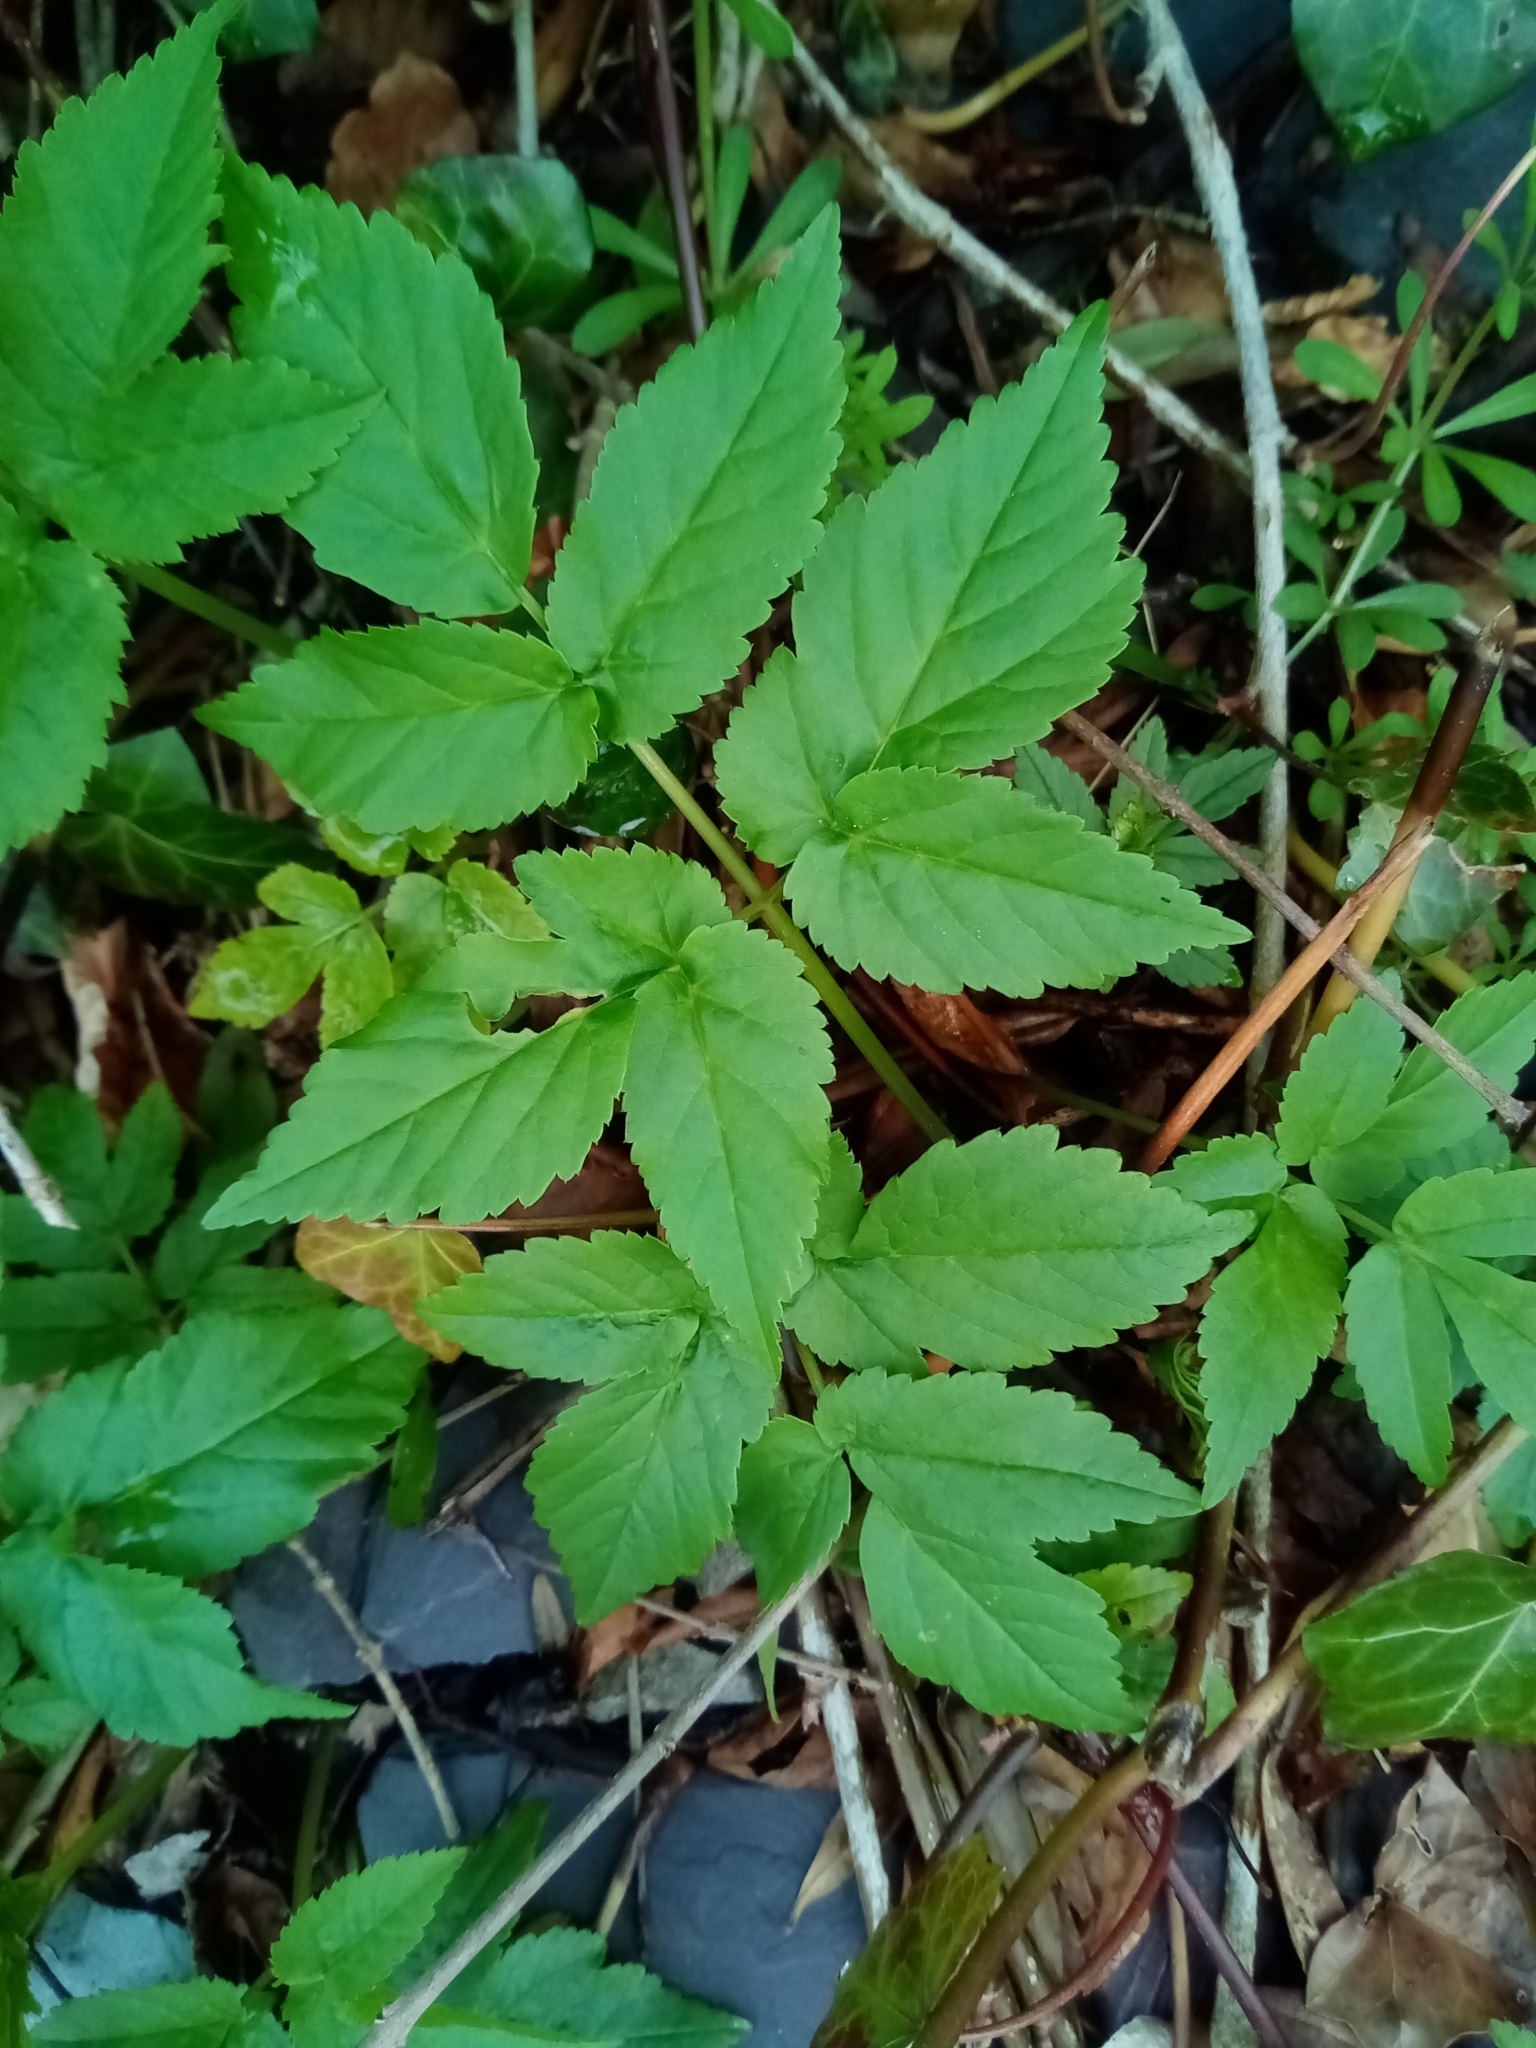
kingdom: Plantae
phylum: Tracheophyta
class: Magnoliopsida
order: Apiales
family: Apiaceae
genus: Aegopodium
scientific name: Aegopodium podagraria
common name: Ground-elder
